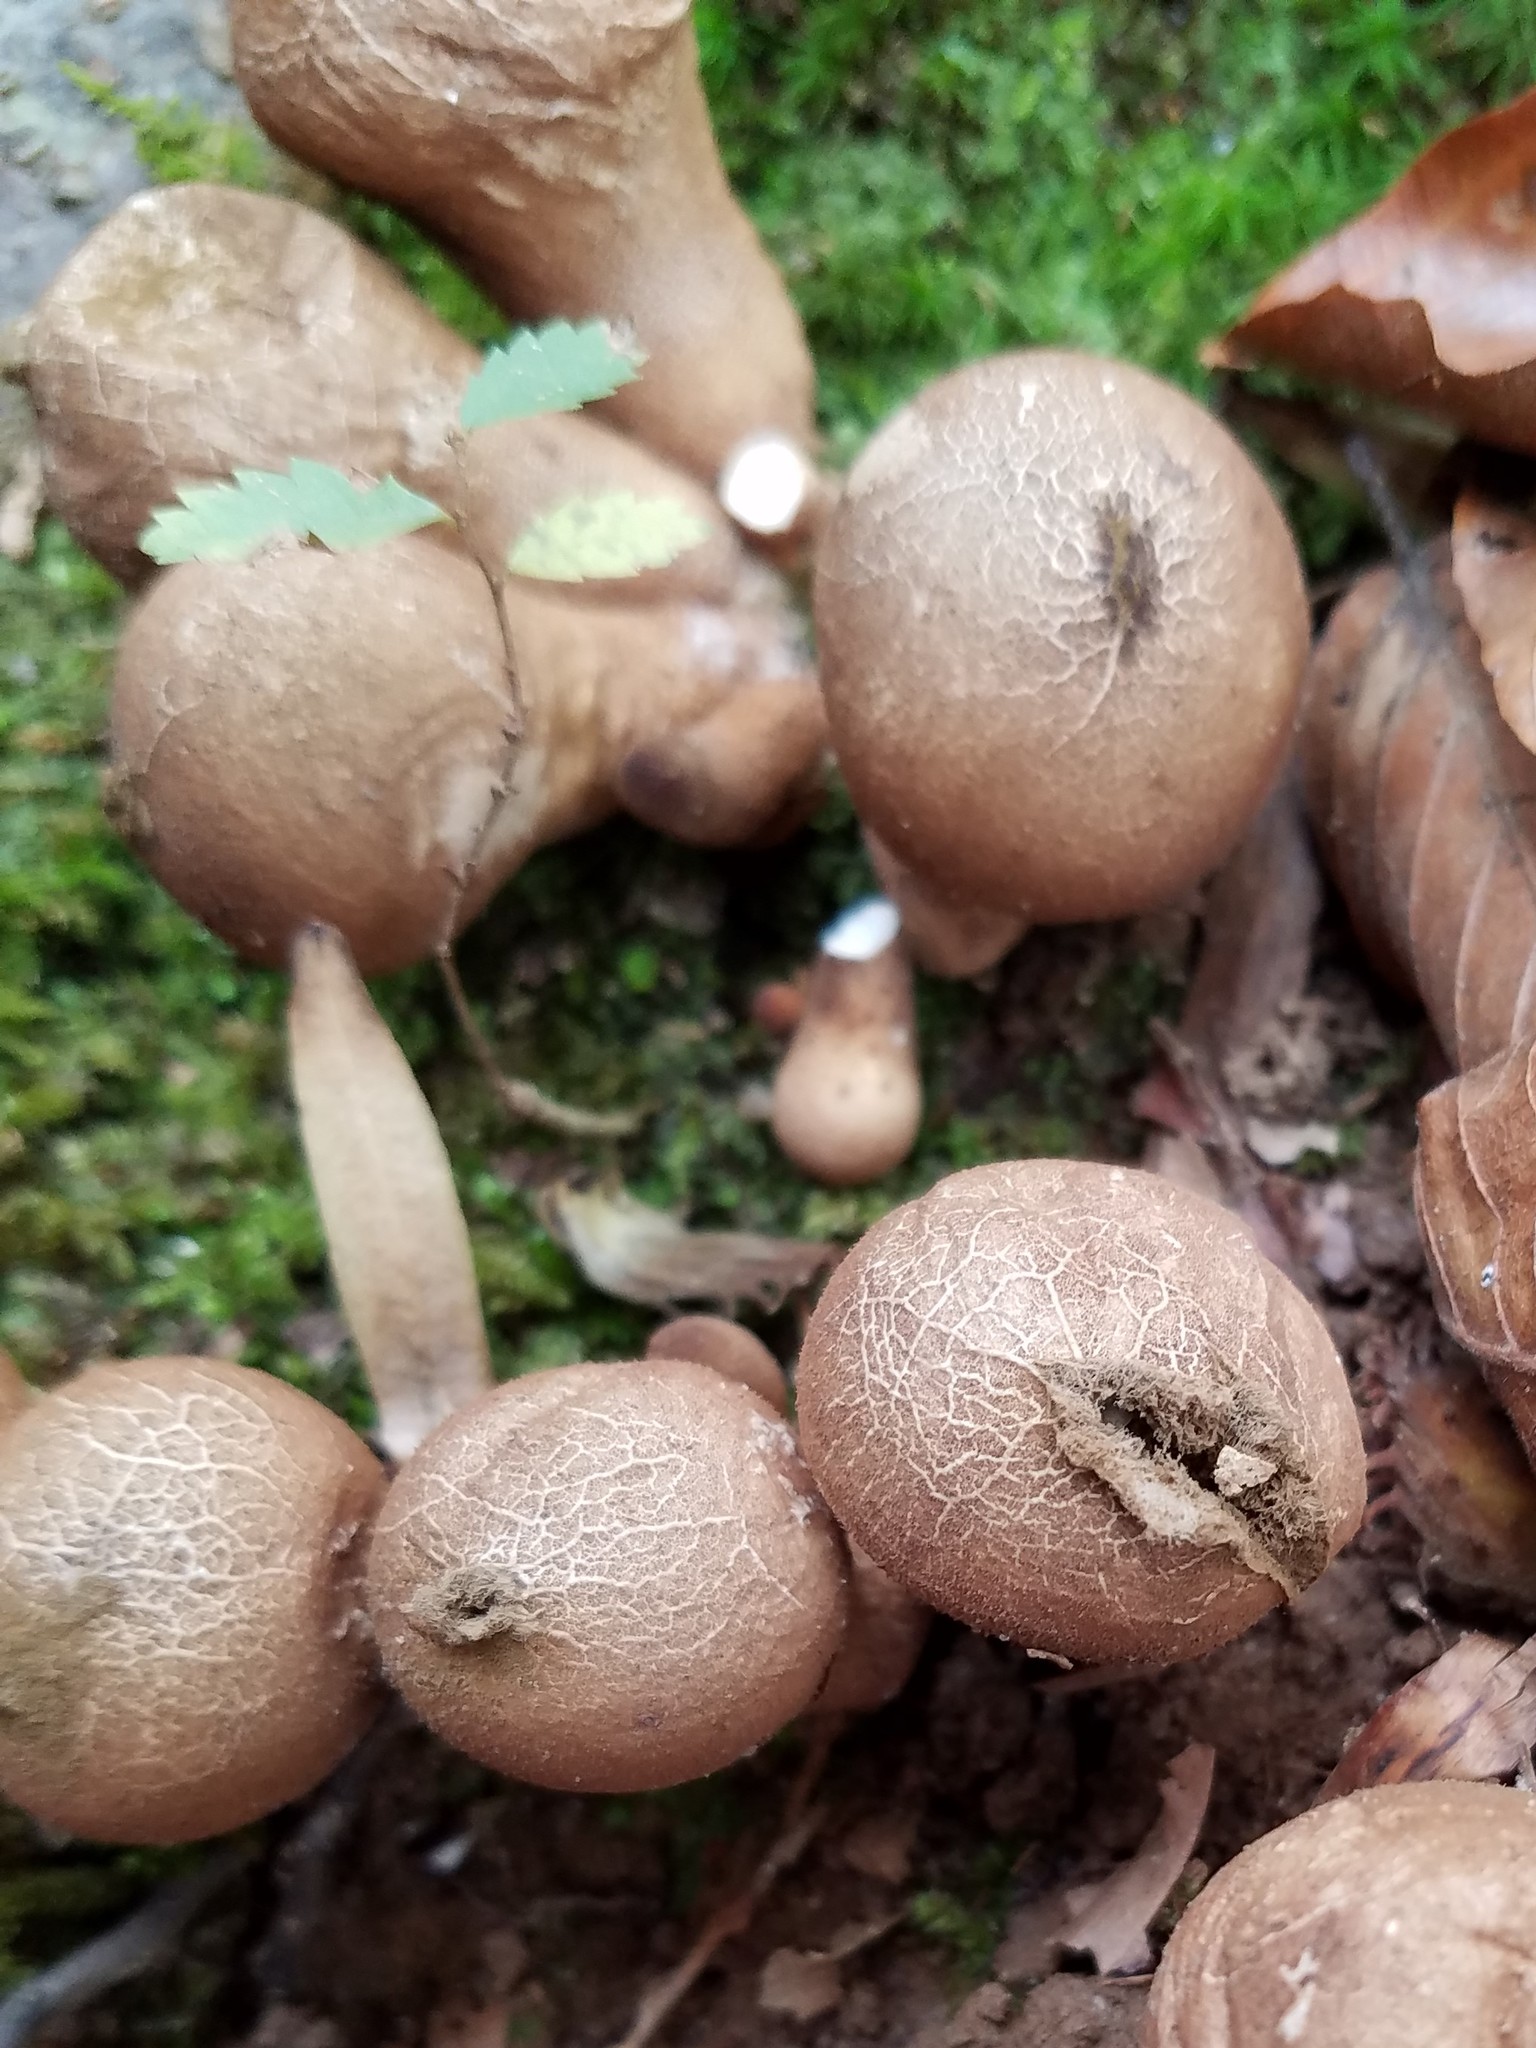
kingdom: Fungi
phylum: Basidiomycota
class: Agaricomycetes
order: Agaricales
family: Lycoperdaceae
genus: Apioperdon
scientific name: Apioperdon pyriforme
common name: Pear-shaped puffball
